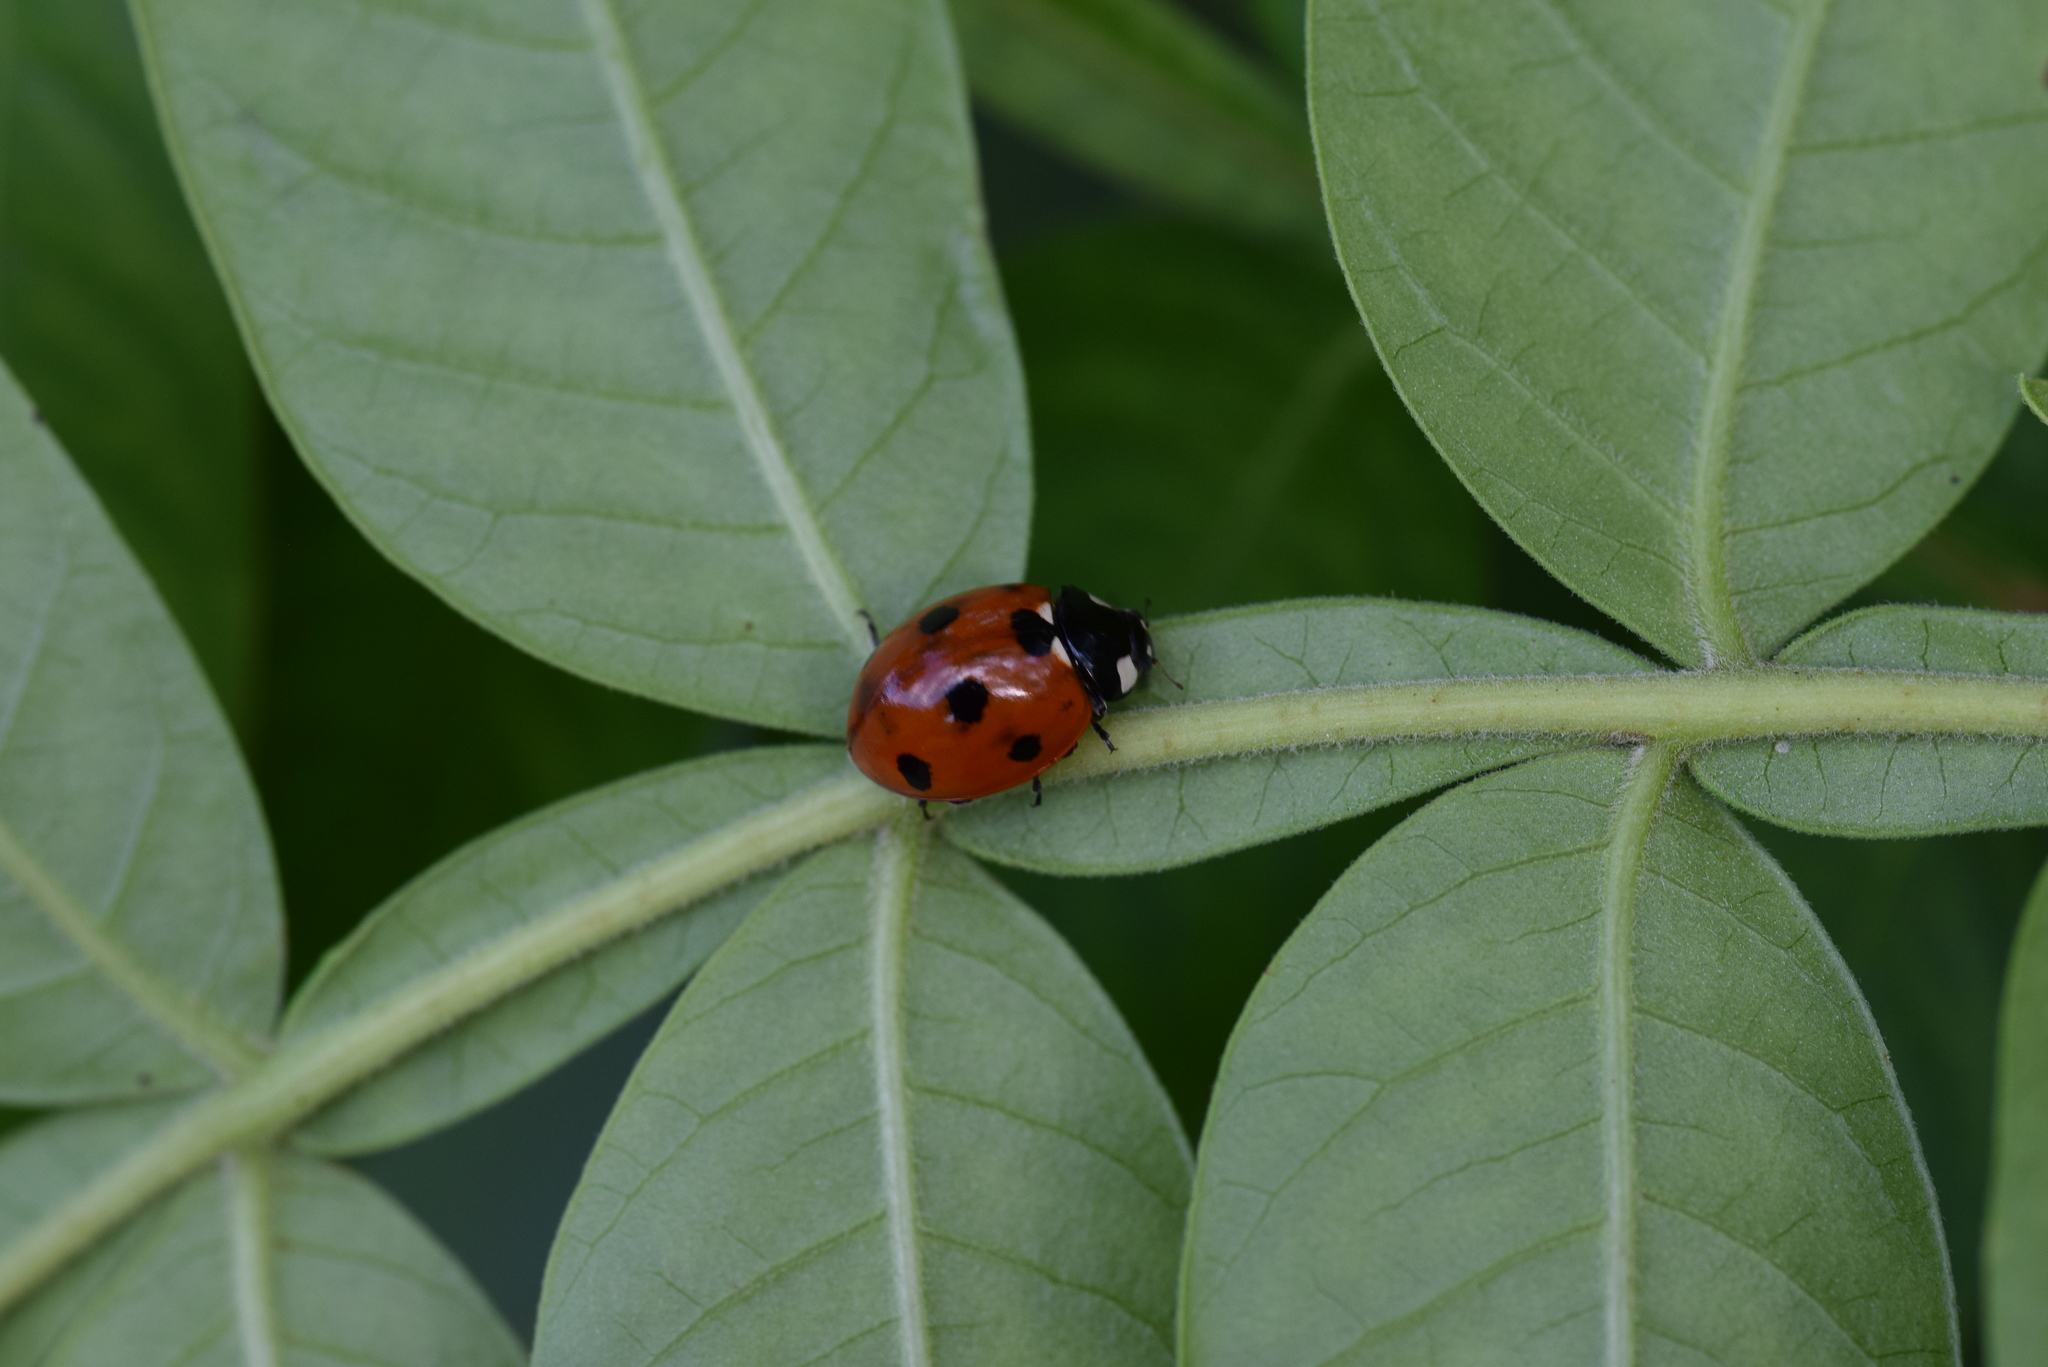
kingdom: Animalia
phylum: Arthropoda
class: Insecta
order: Coleoptera
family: Coccinellidae
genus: Coccinella
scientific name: Coccinella septempunctata
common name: Sevenspotted lady beetle
